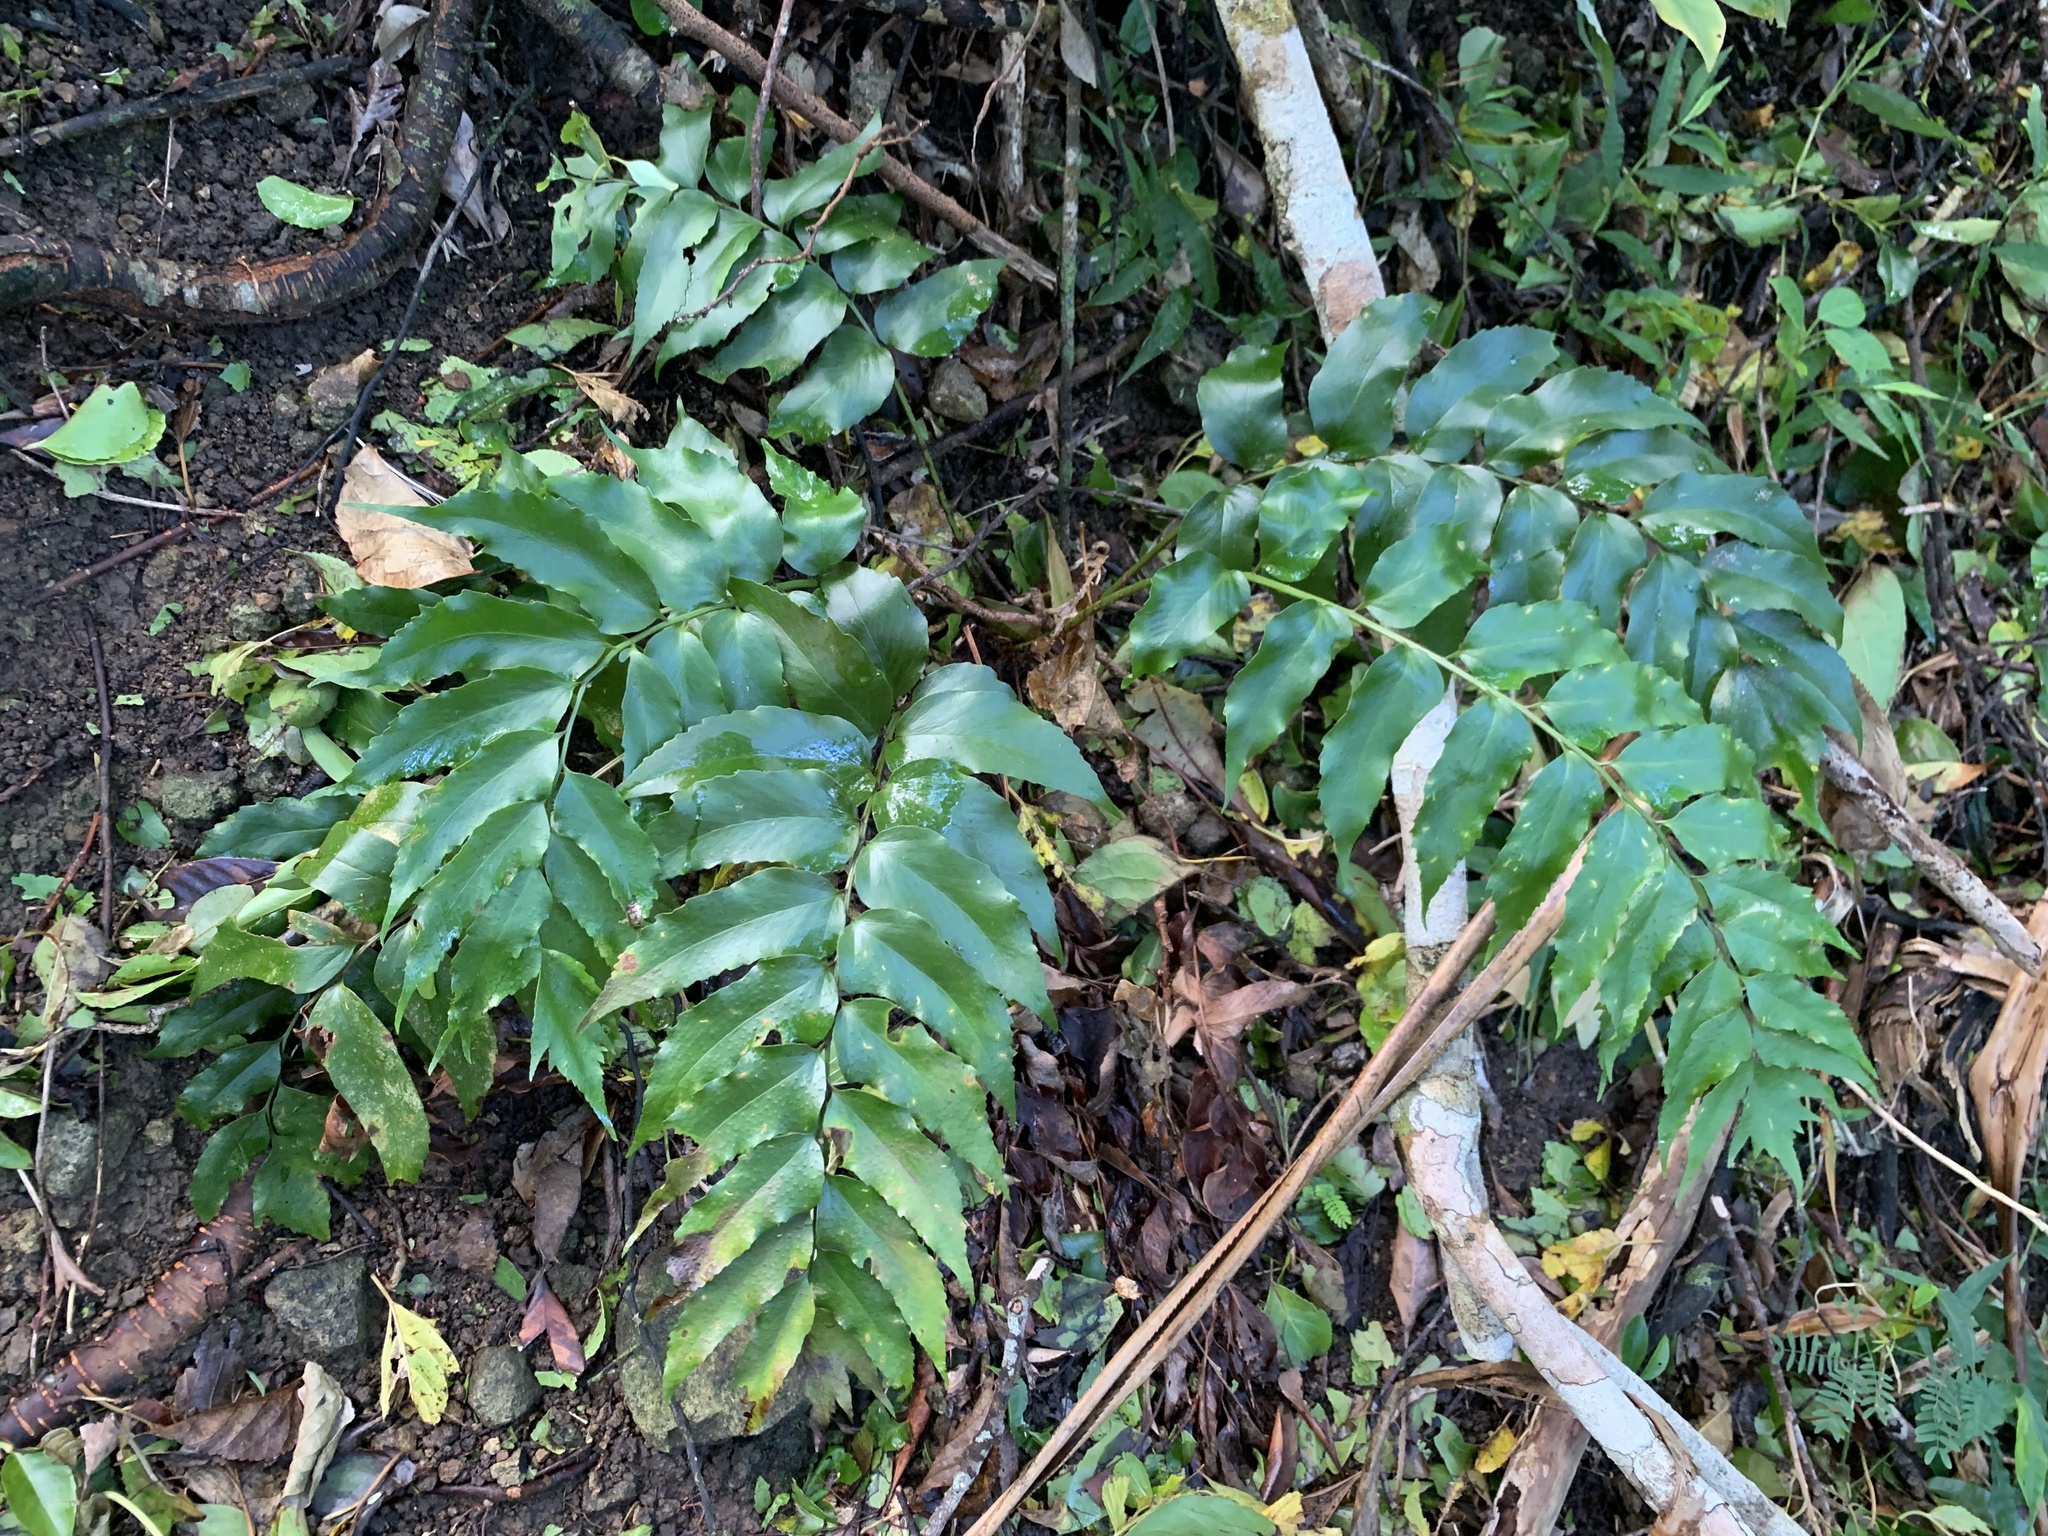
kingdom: Plantae
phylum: Tracheophyta
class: Polypodiopsida
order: Polypodiales
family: Dryopteridaceae
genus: Cyrtomium
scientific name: Cyrtomium falcatum
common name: House holly-fern
